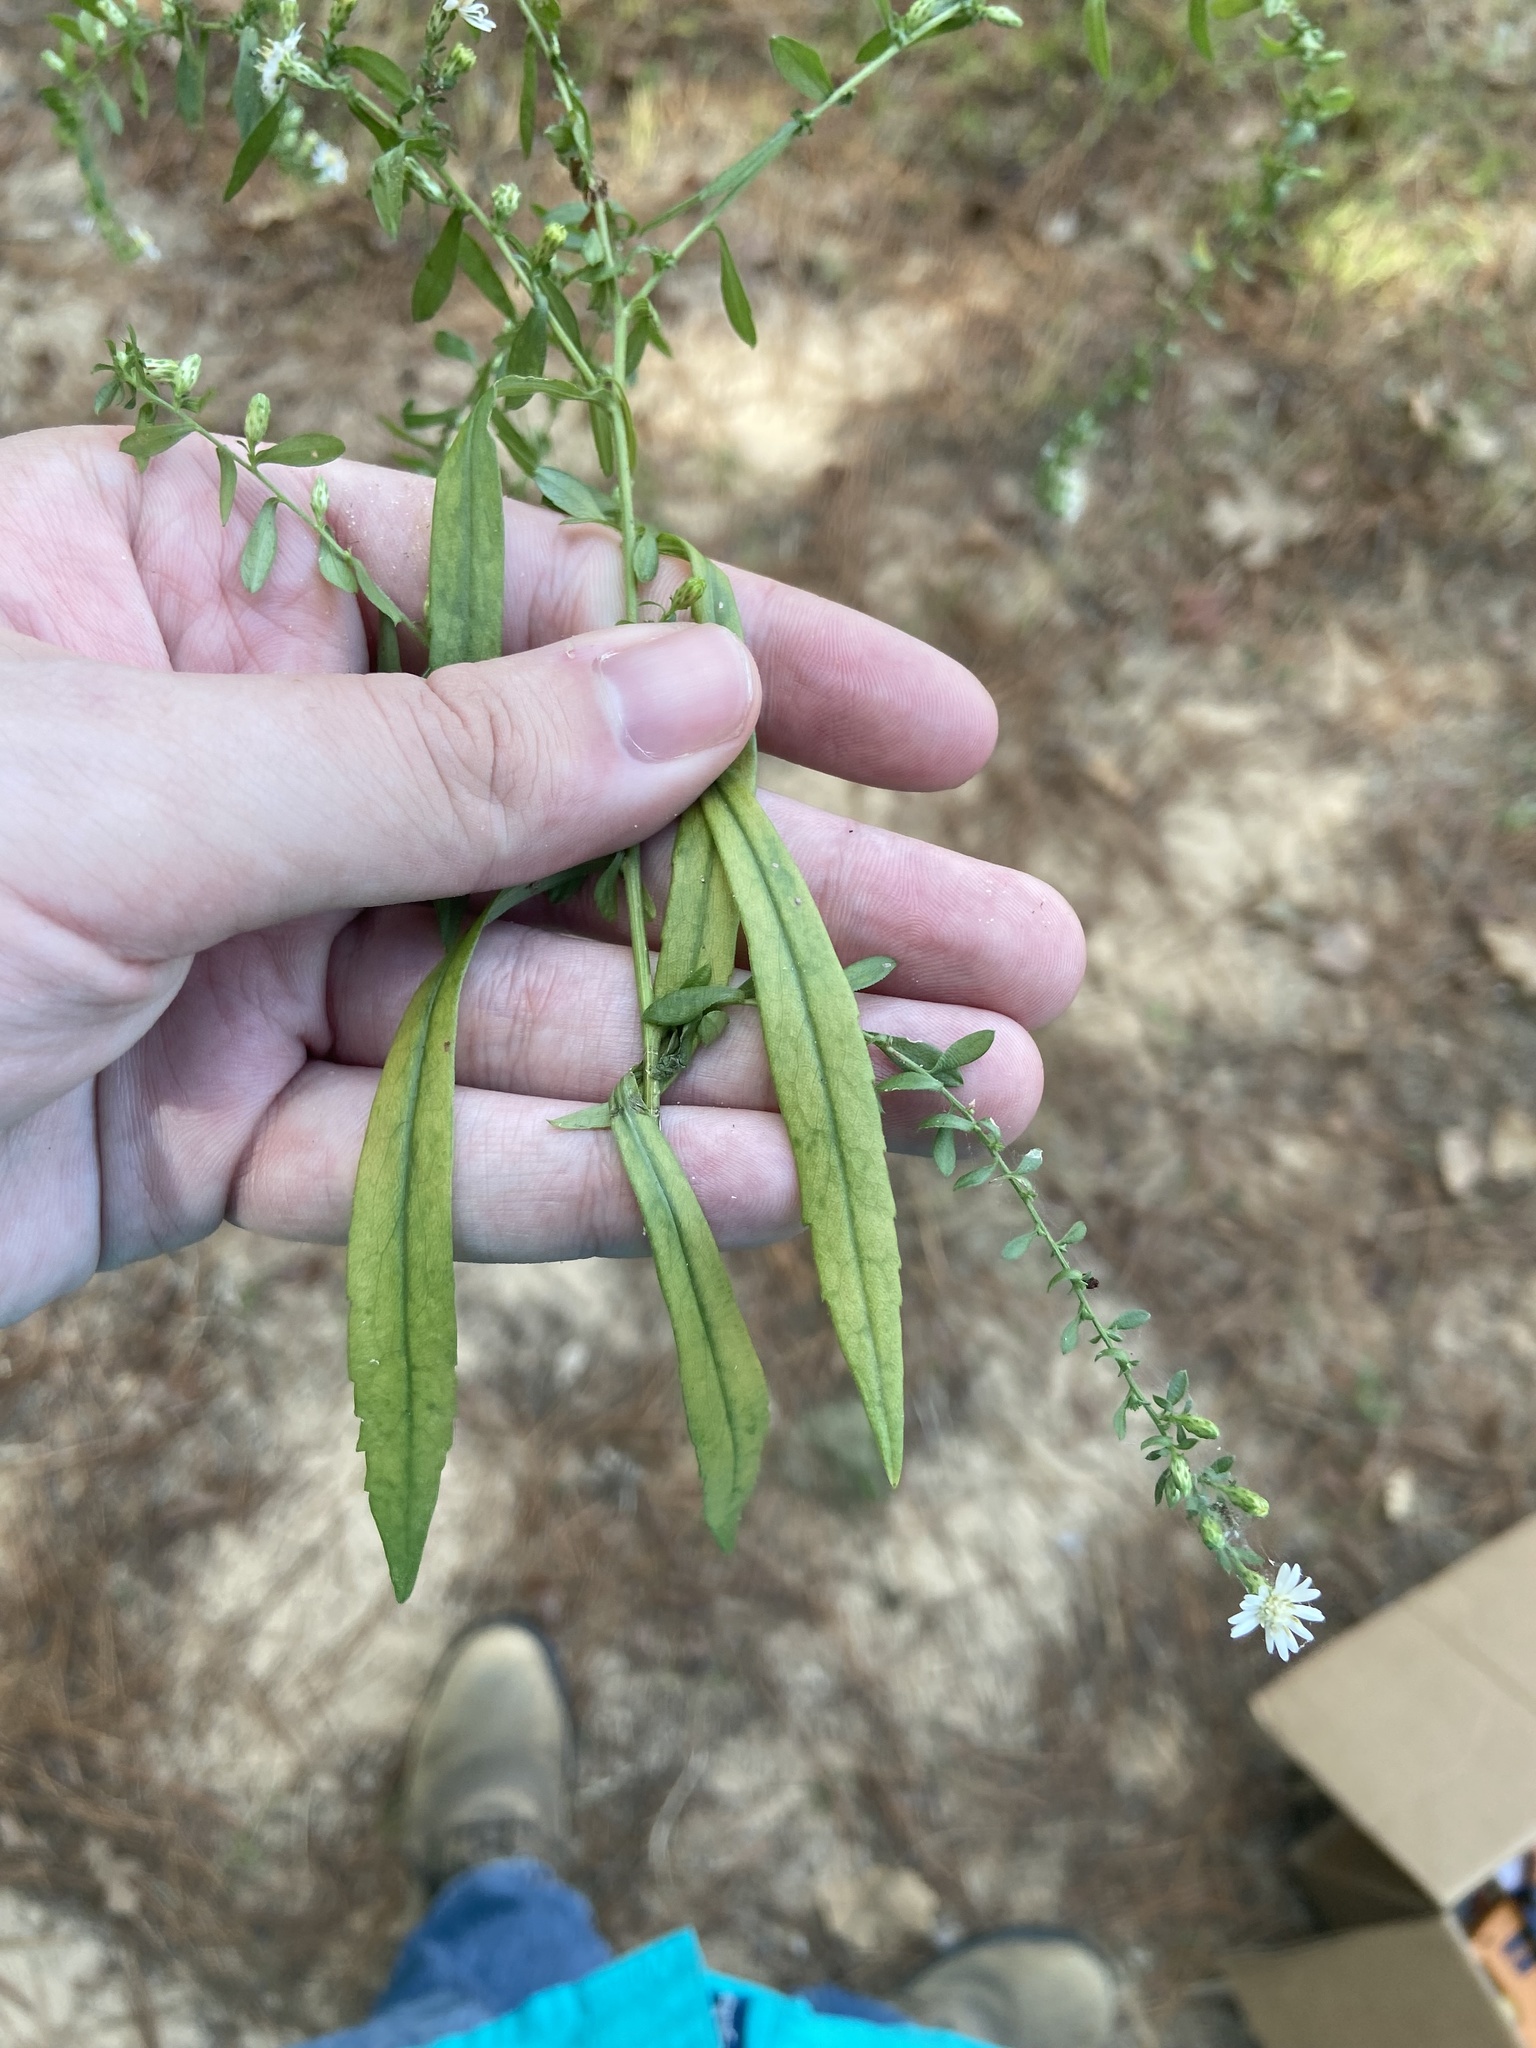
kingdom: Plantae
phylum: Tracheophyta
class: Magnoliopsida
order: Asterales
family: Asteraceae
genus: Symphyotrichum
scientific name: Symphyotrichum lateriflorum
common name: Calico aster
